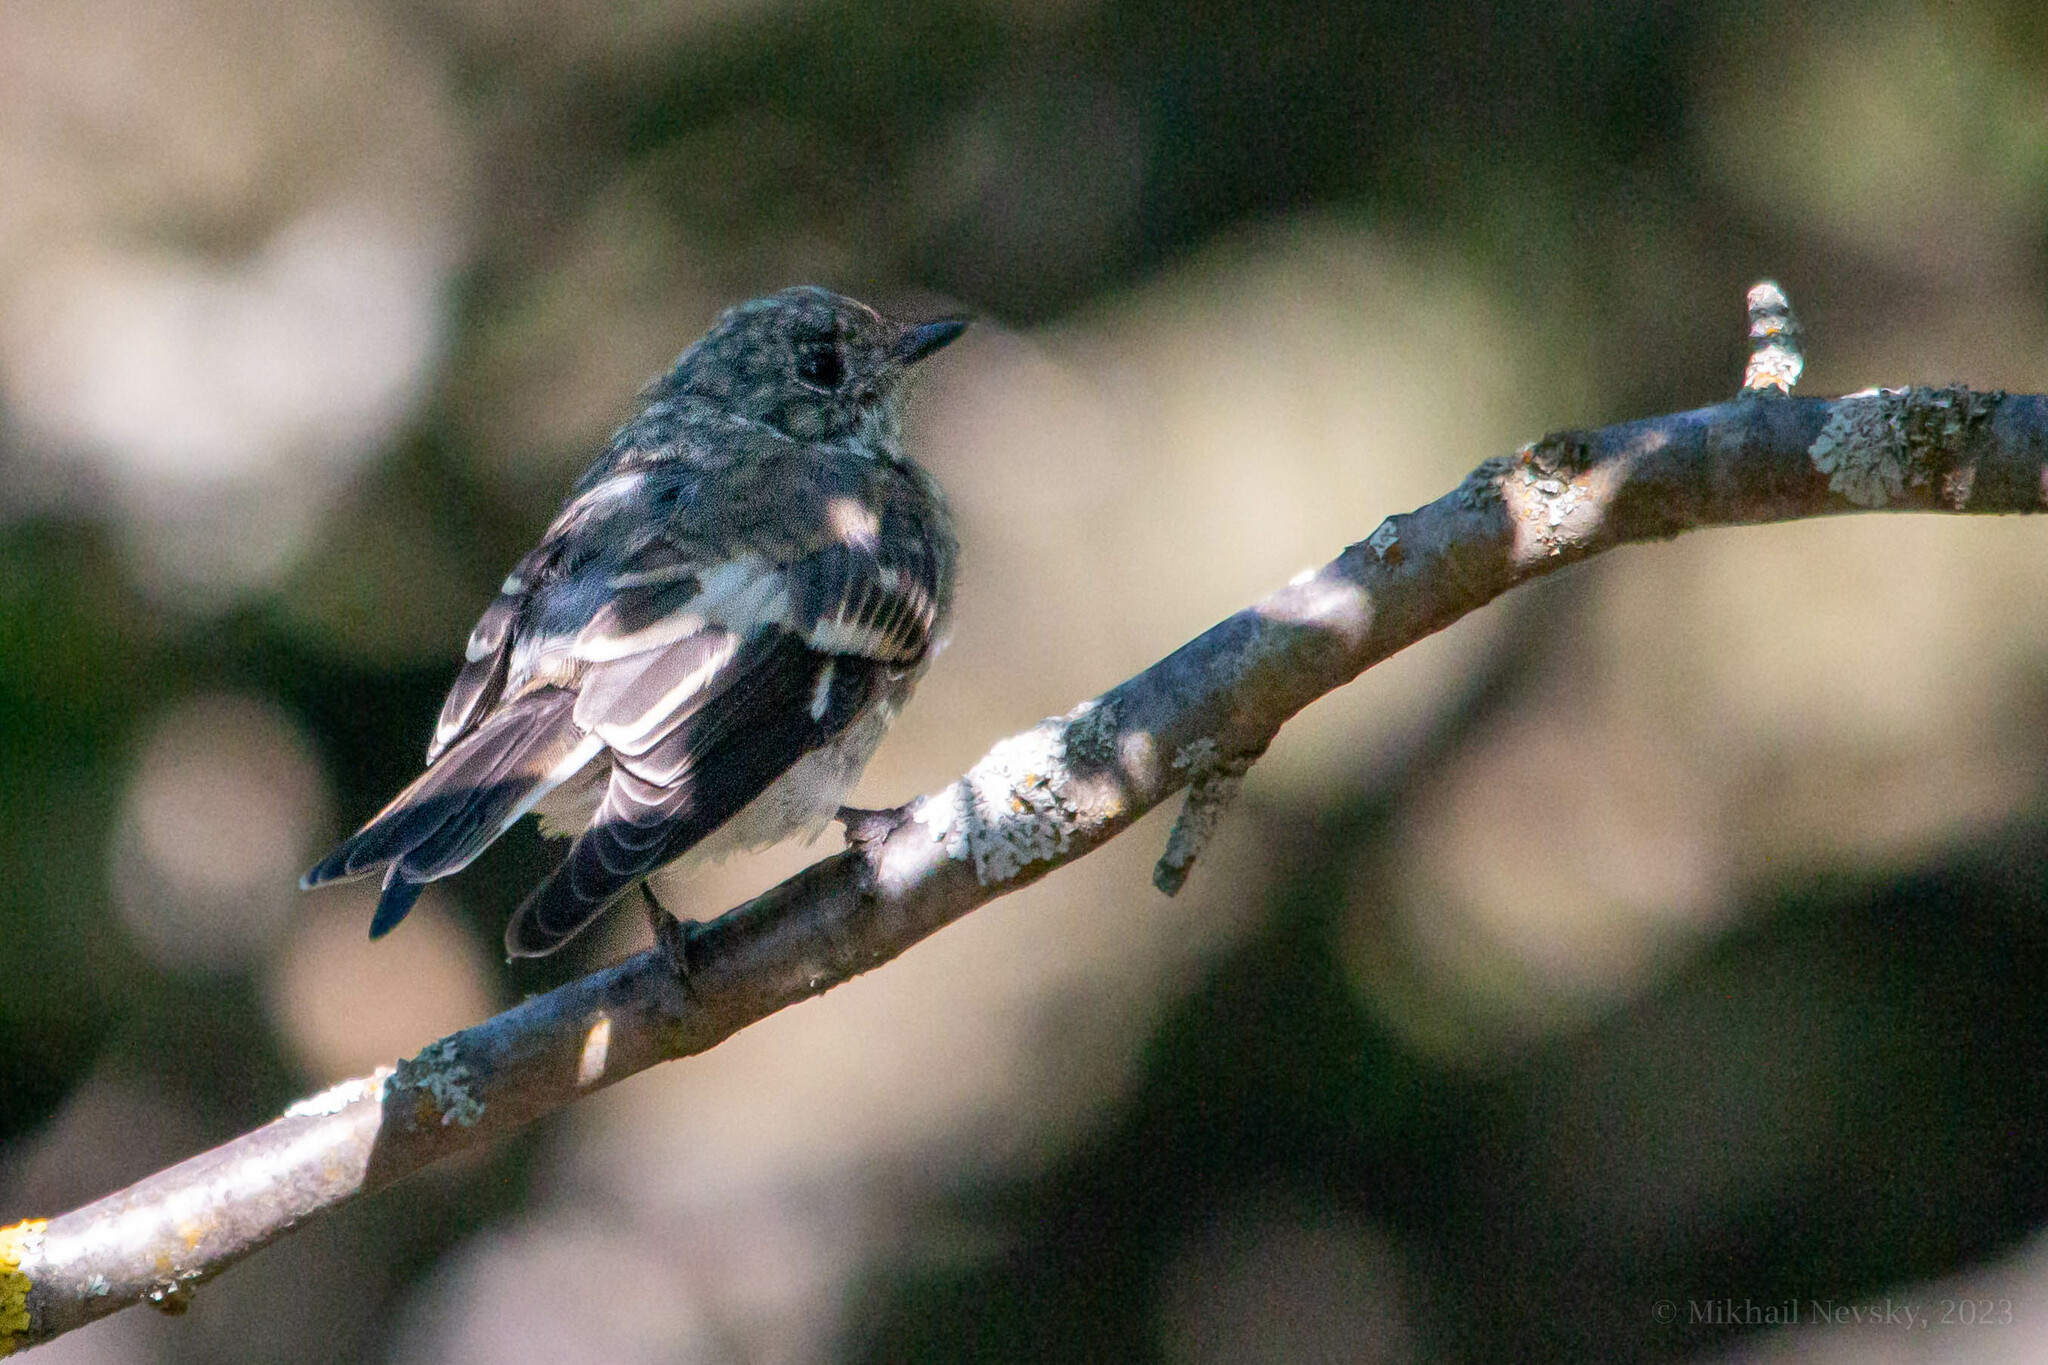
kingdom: Animalia
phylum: Chordata
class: Aves
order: Passeriformes
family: Muscicapidae
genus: Ficedula
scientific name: Ficedula semitorquata
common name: Semicollared flycatcher
